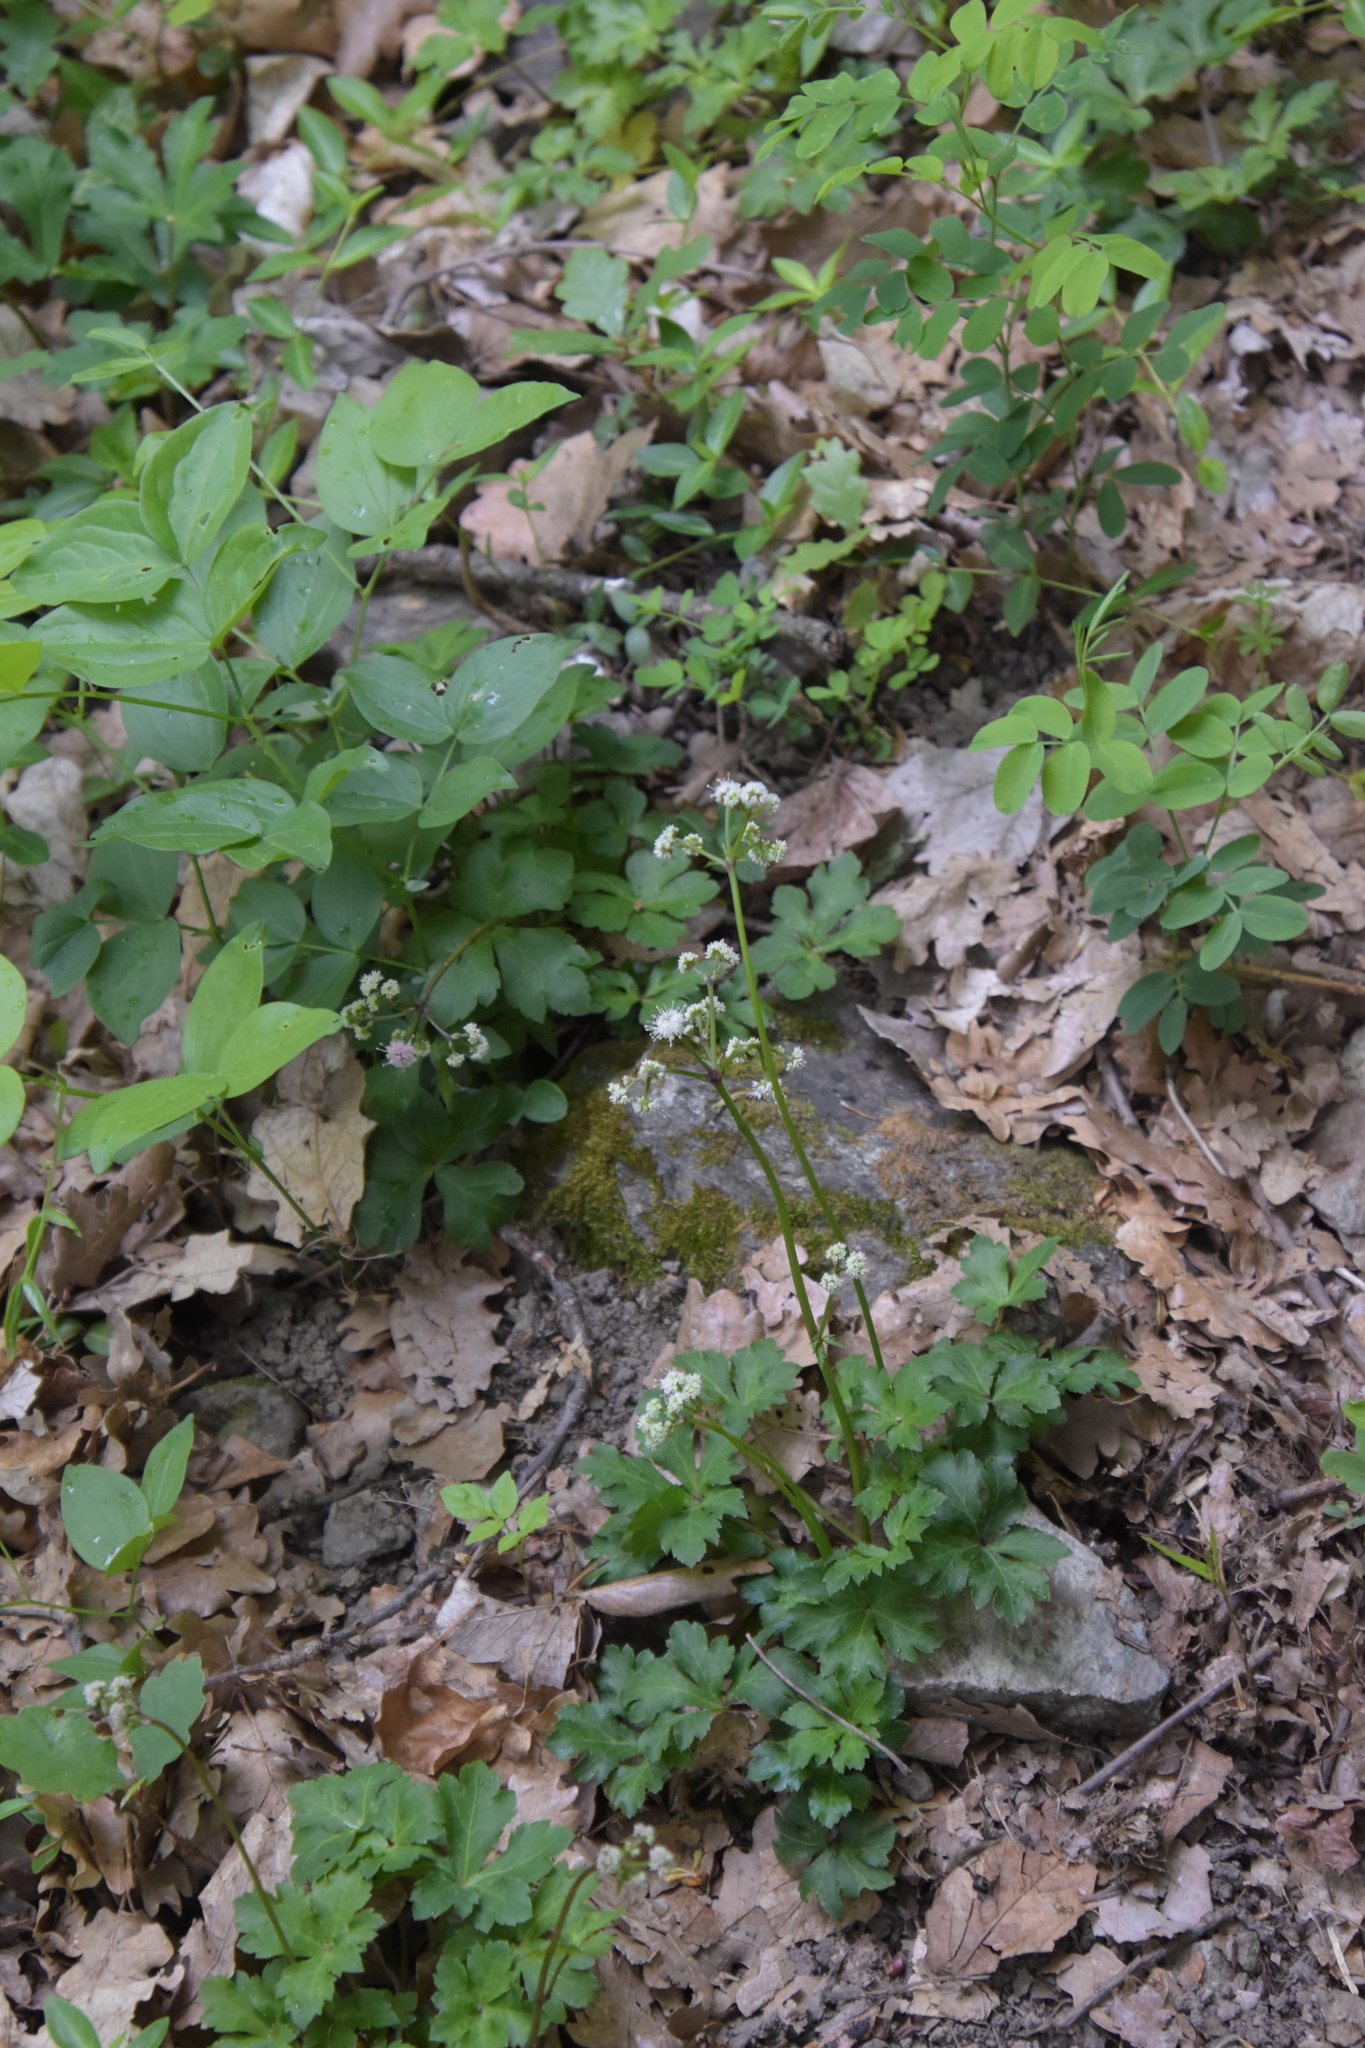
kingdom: Plantae
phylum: Tracheophyta
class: Magnoliopsida
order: Apiales
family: Apiaceae
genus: Sanicula
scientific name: Sanicula europaea
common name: Sanicle
